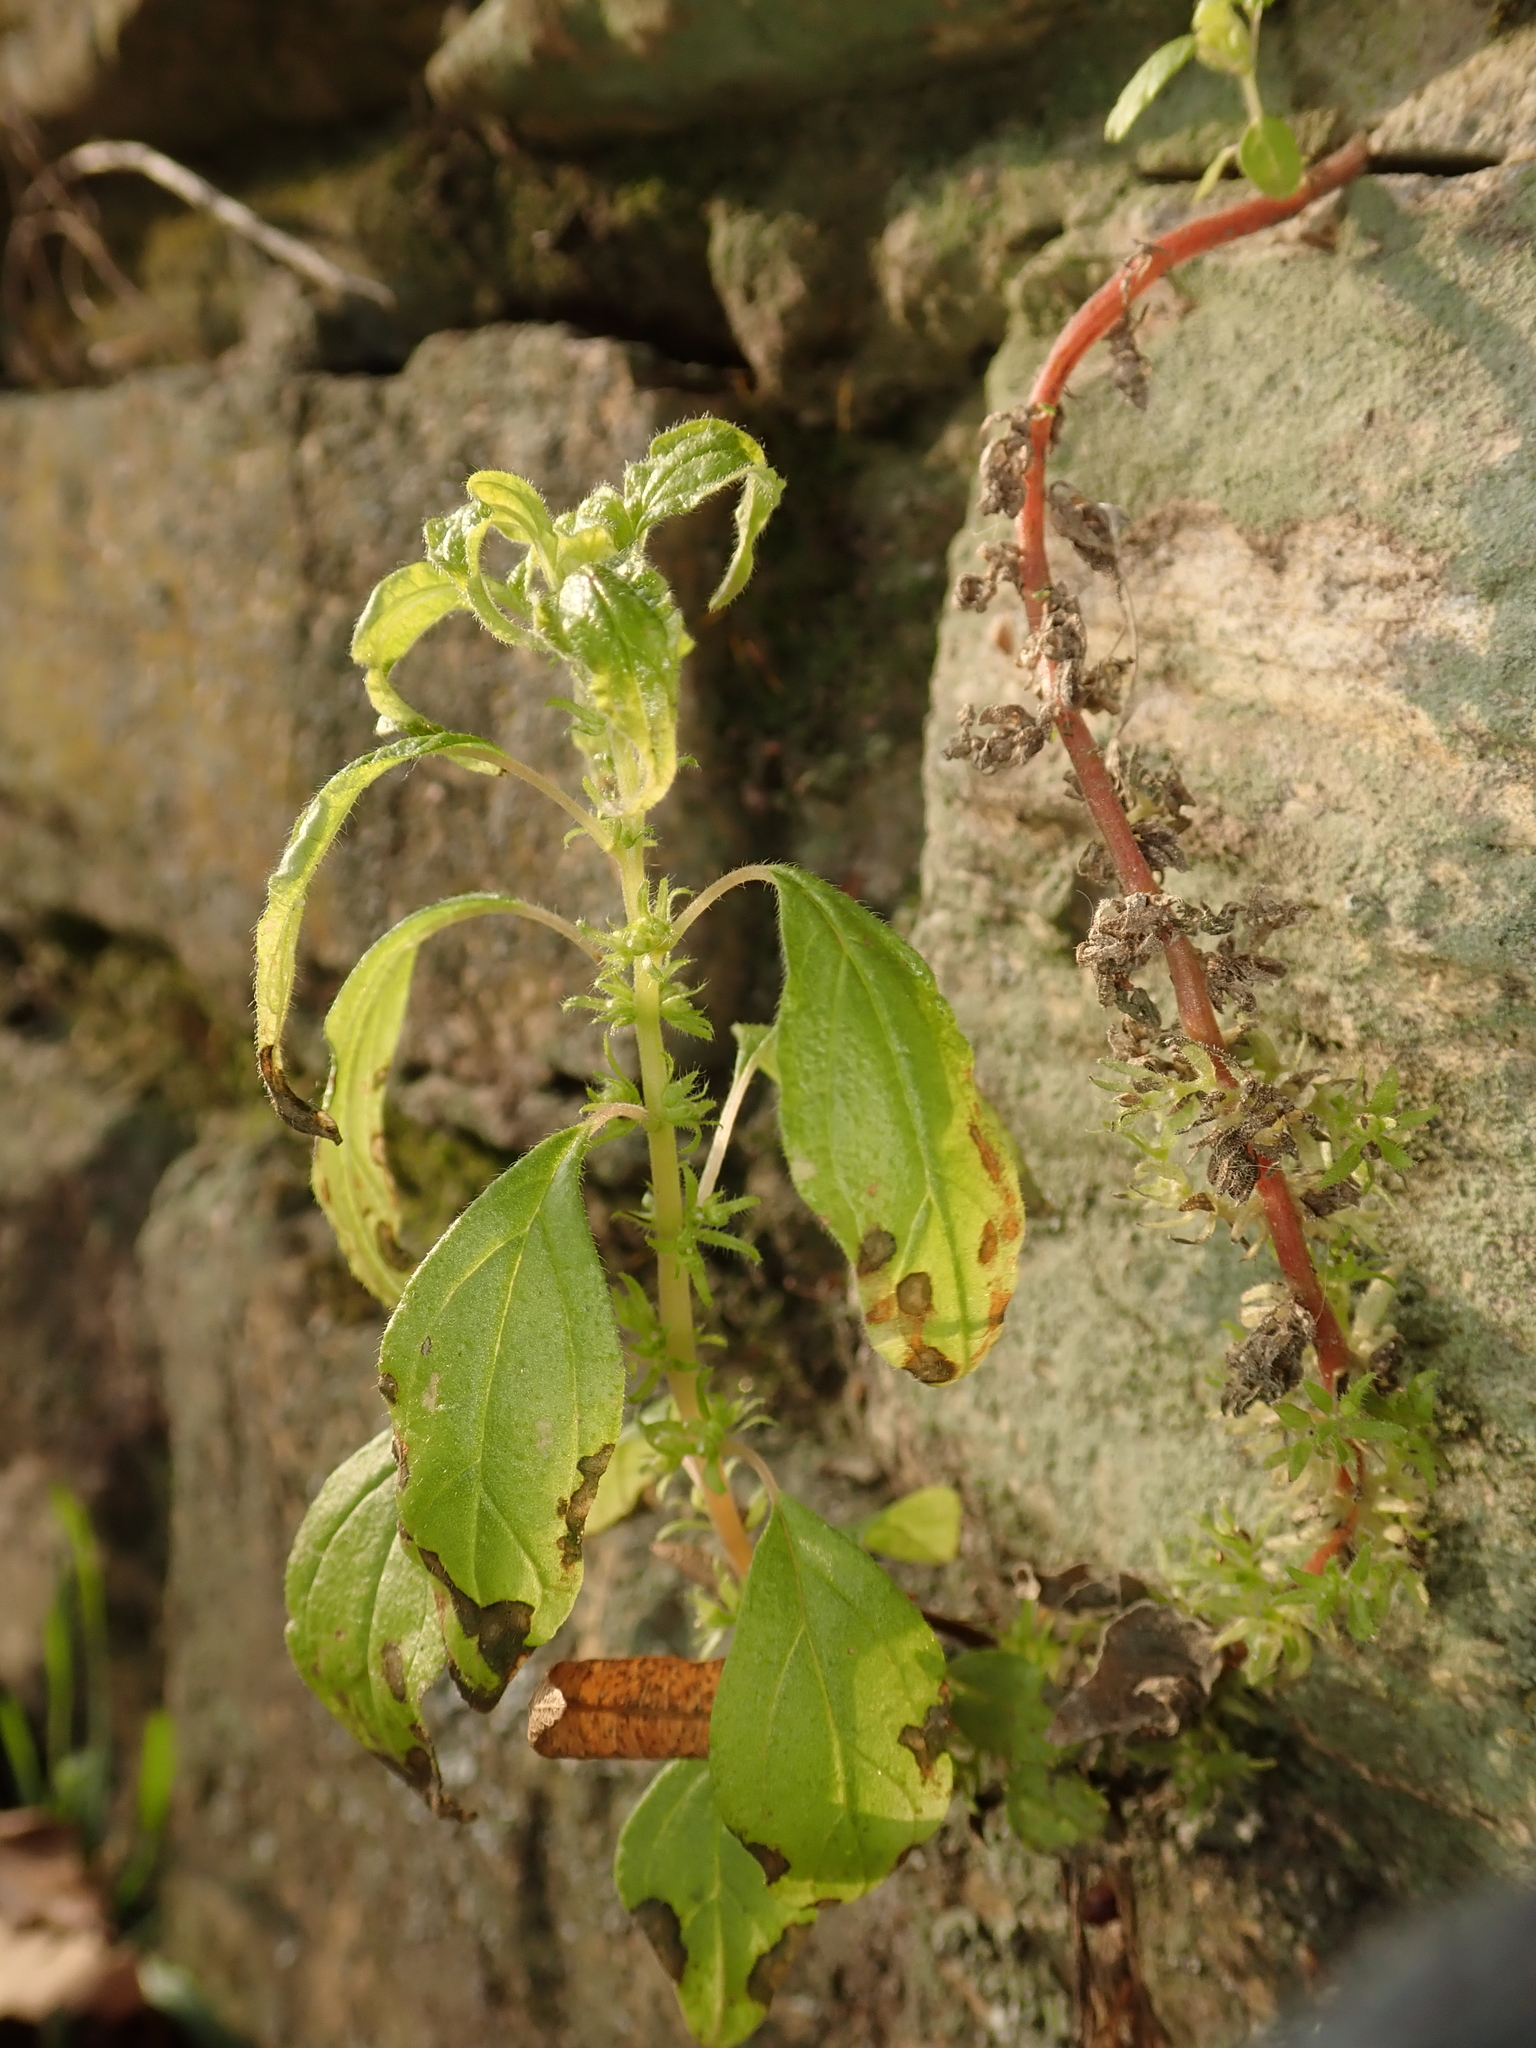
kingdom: Plantae
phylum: Tracheophyta
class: Magnoliopsida
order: Rosales
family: Urticaceae
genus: Parietaria
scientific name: Parietaria pensylvanica
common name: Pennsylvania pellitory
